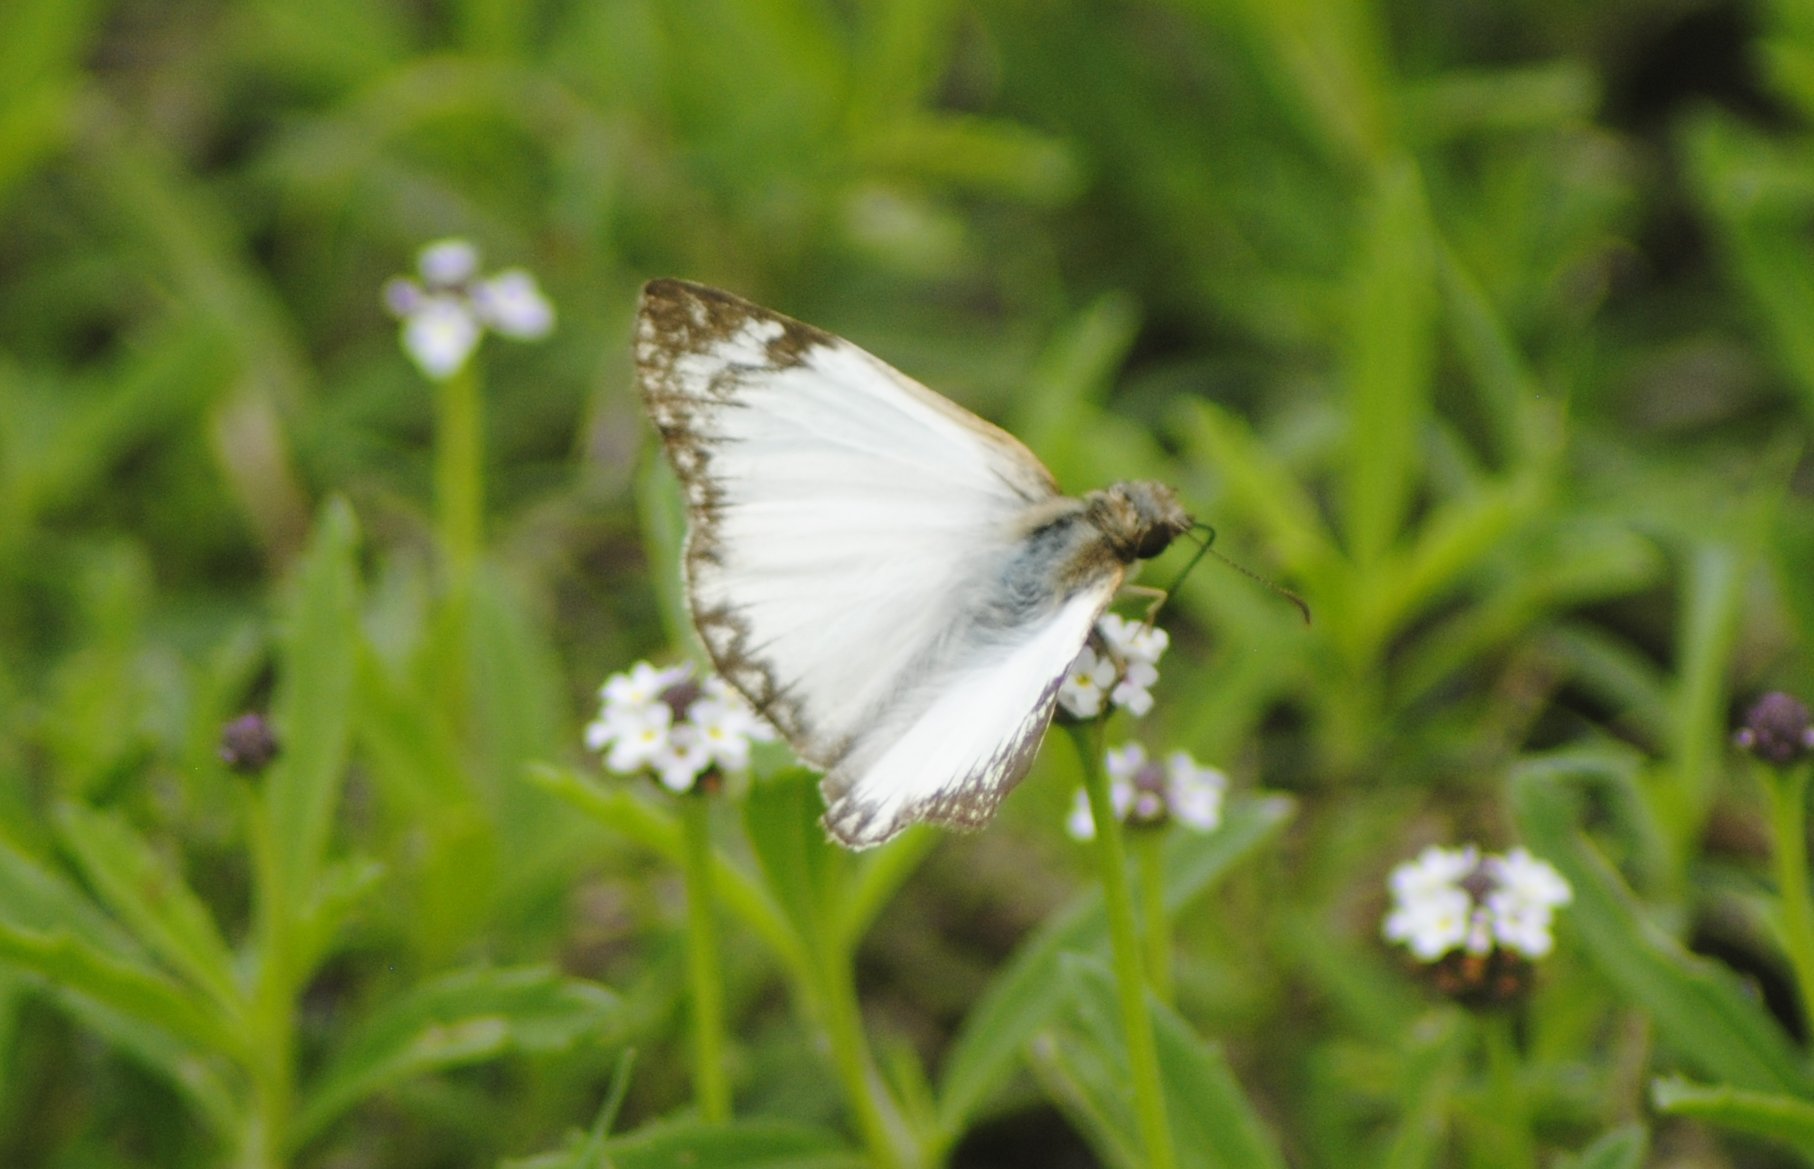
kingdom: Animalia
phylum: Arthropoda
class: Insecta
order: Lepidoptera
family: Hesperiidae
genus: Heliopetes
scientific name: Heliopetes laviana
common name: Laviana white-skipper
